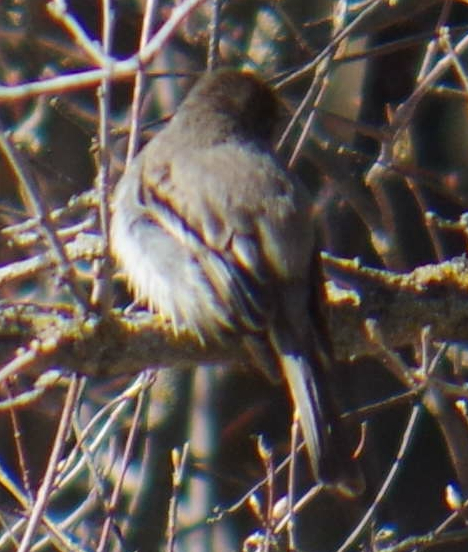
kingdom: Animalia
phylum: Chordata
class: Aves
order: Passeriformes
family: Tyrannidae
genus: Sayornis
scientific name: Sayornis phoebe
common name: Eastern phoebe
